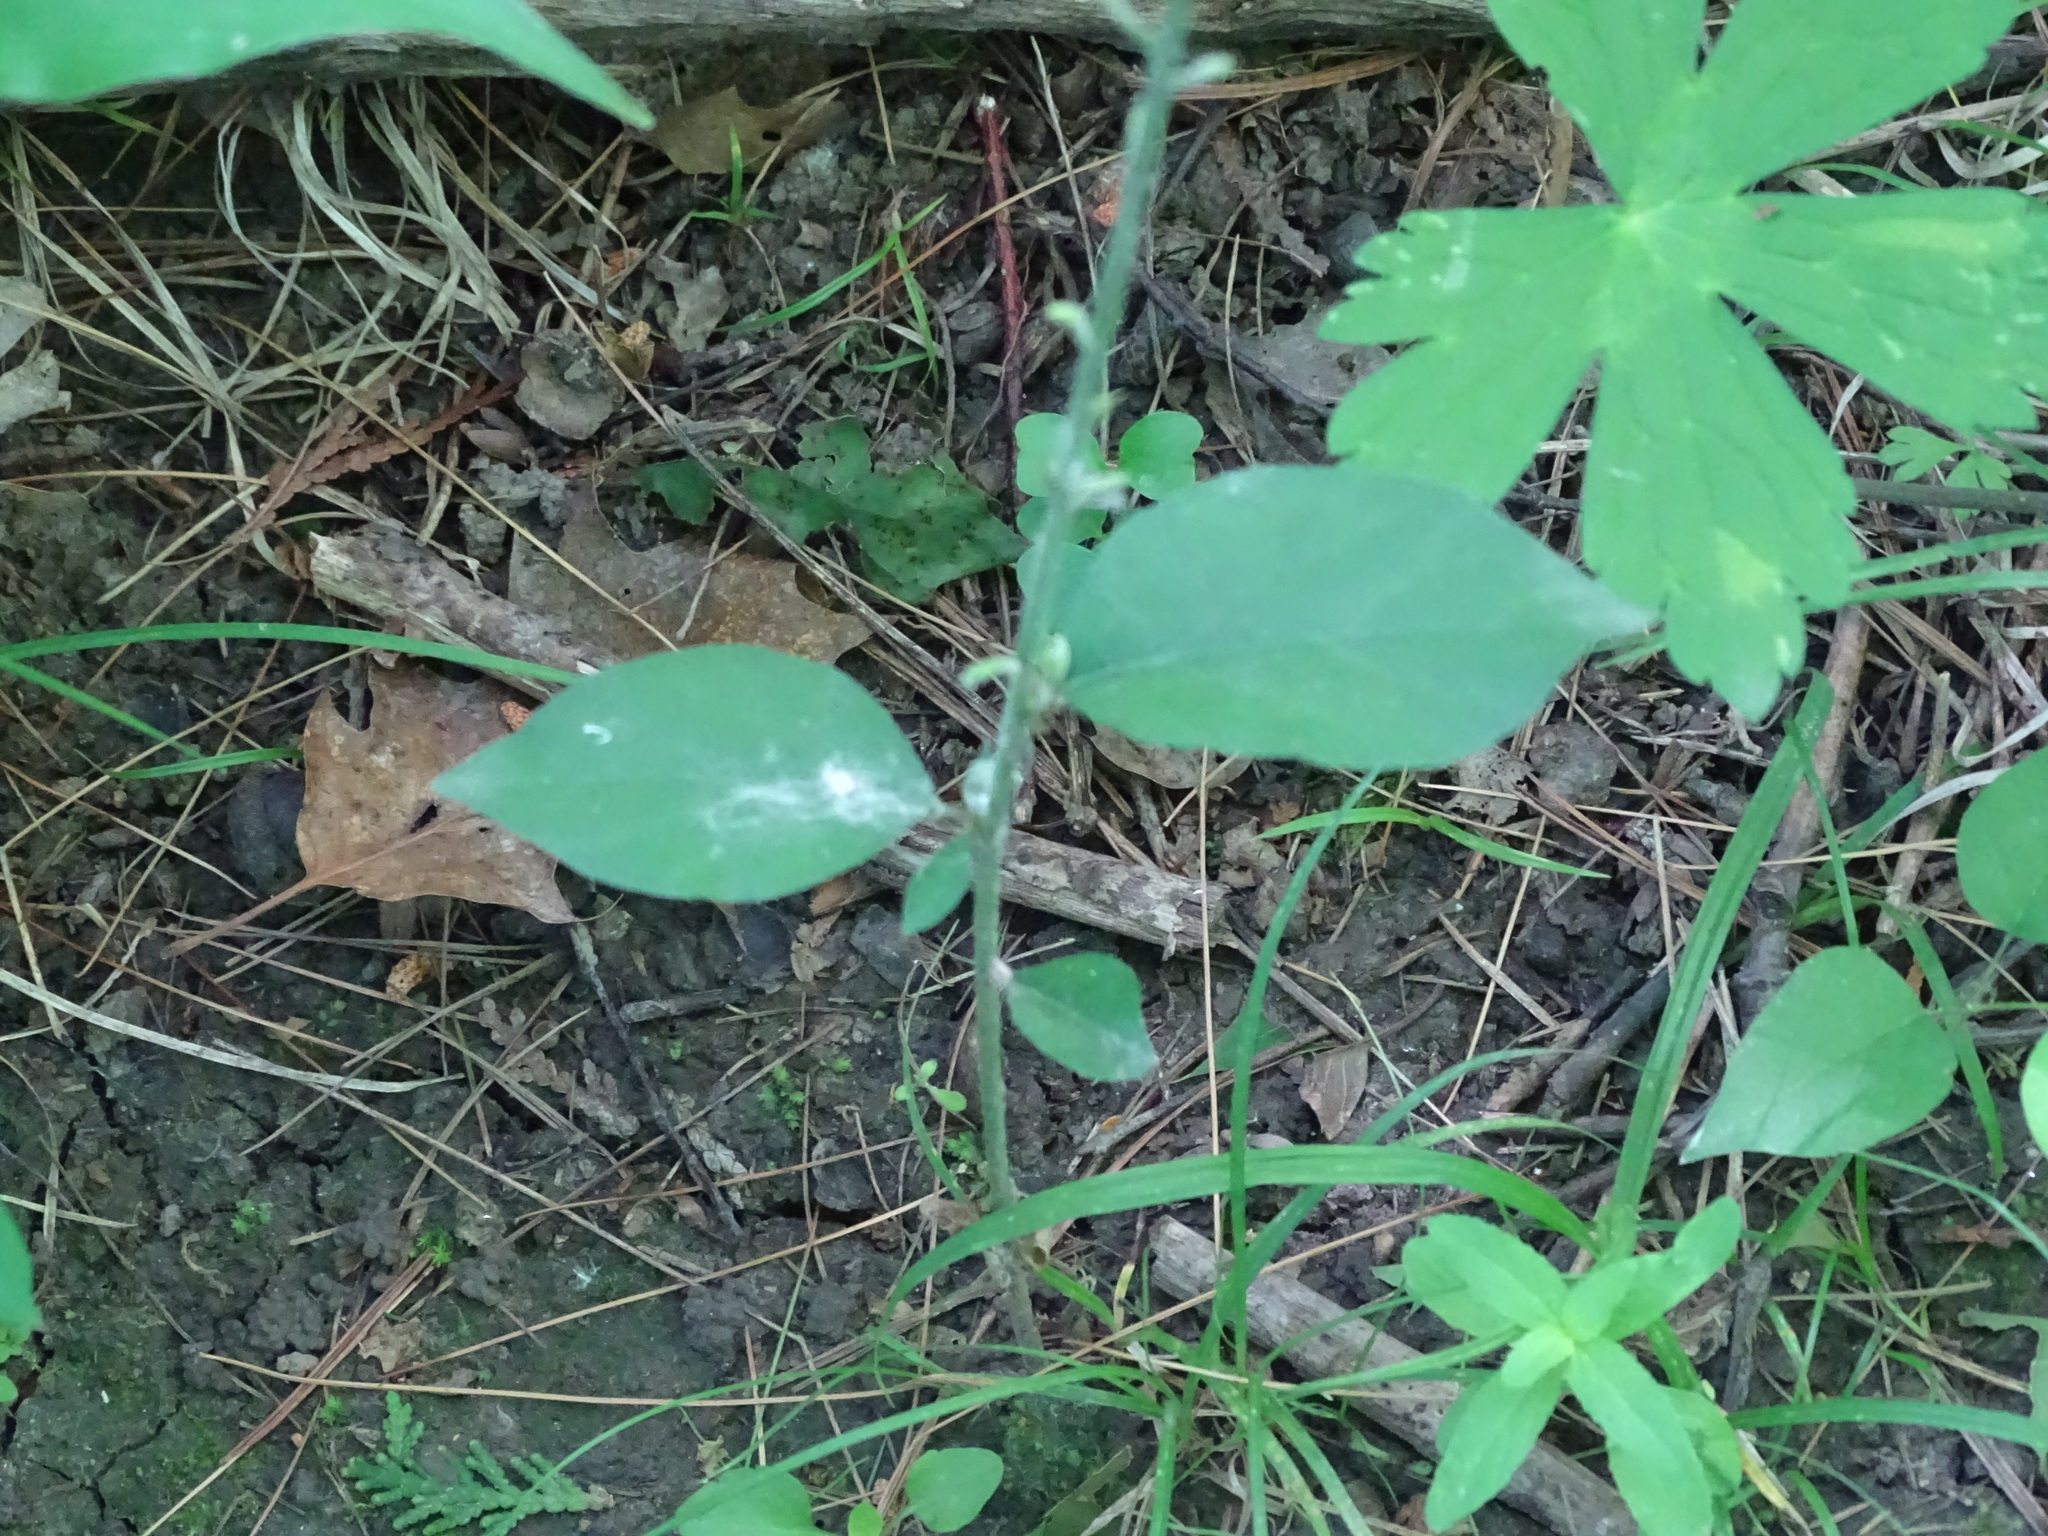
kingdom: Plantae
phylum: Tracheophyta
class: Magnoliopsida
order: Fabales
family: Fabaceae
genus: Hylodesmum
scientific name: Hylodesmum glutinosum
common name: Clustered-leaved tick-trefoil
